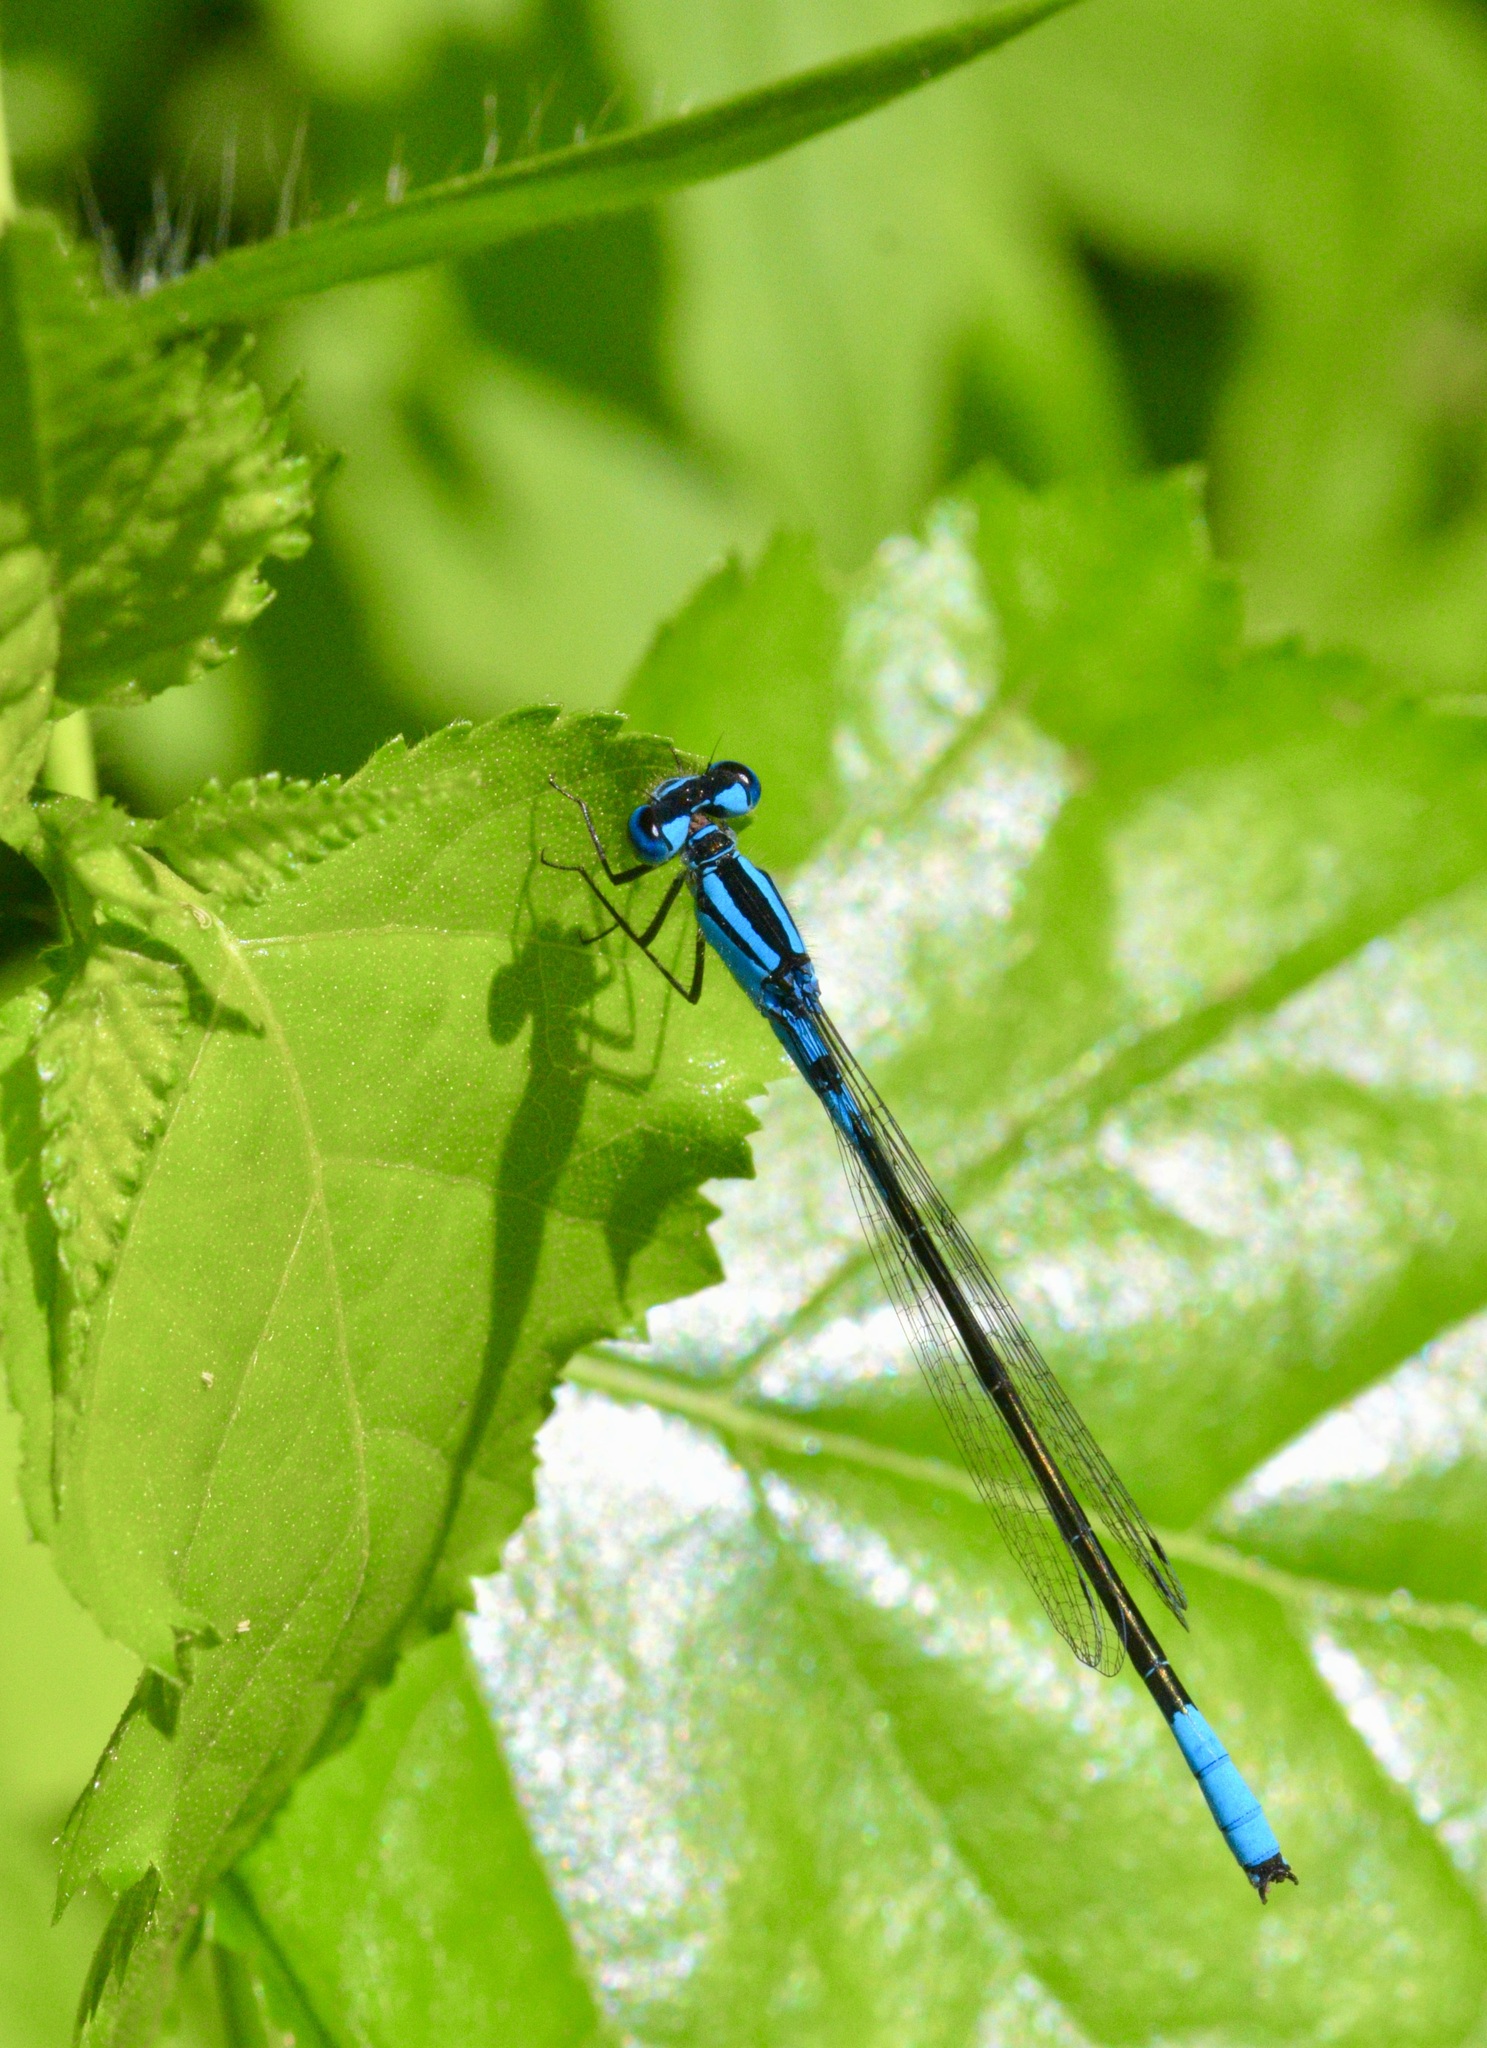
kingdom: Animalia
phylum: Arthropoda
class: Insecta
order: Odonata
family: Coenagrionidae
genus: Enallagma
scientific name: Enallagma aspersum
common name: Azure bluet
